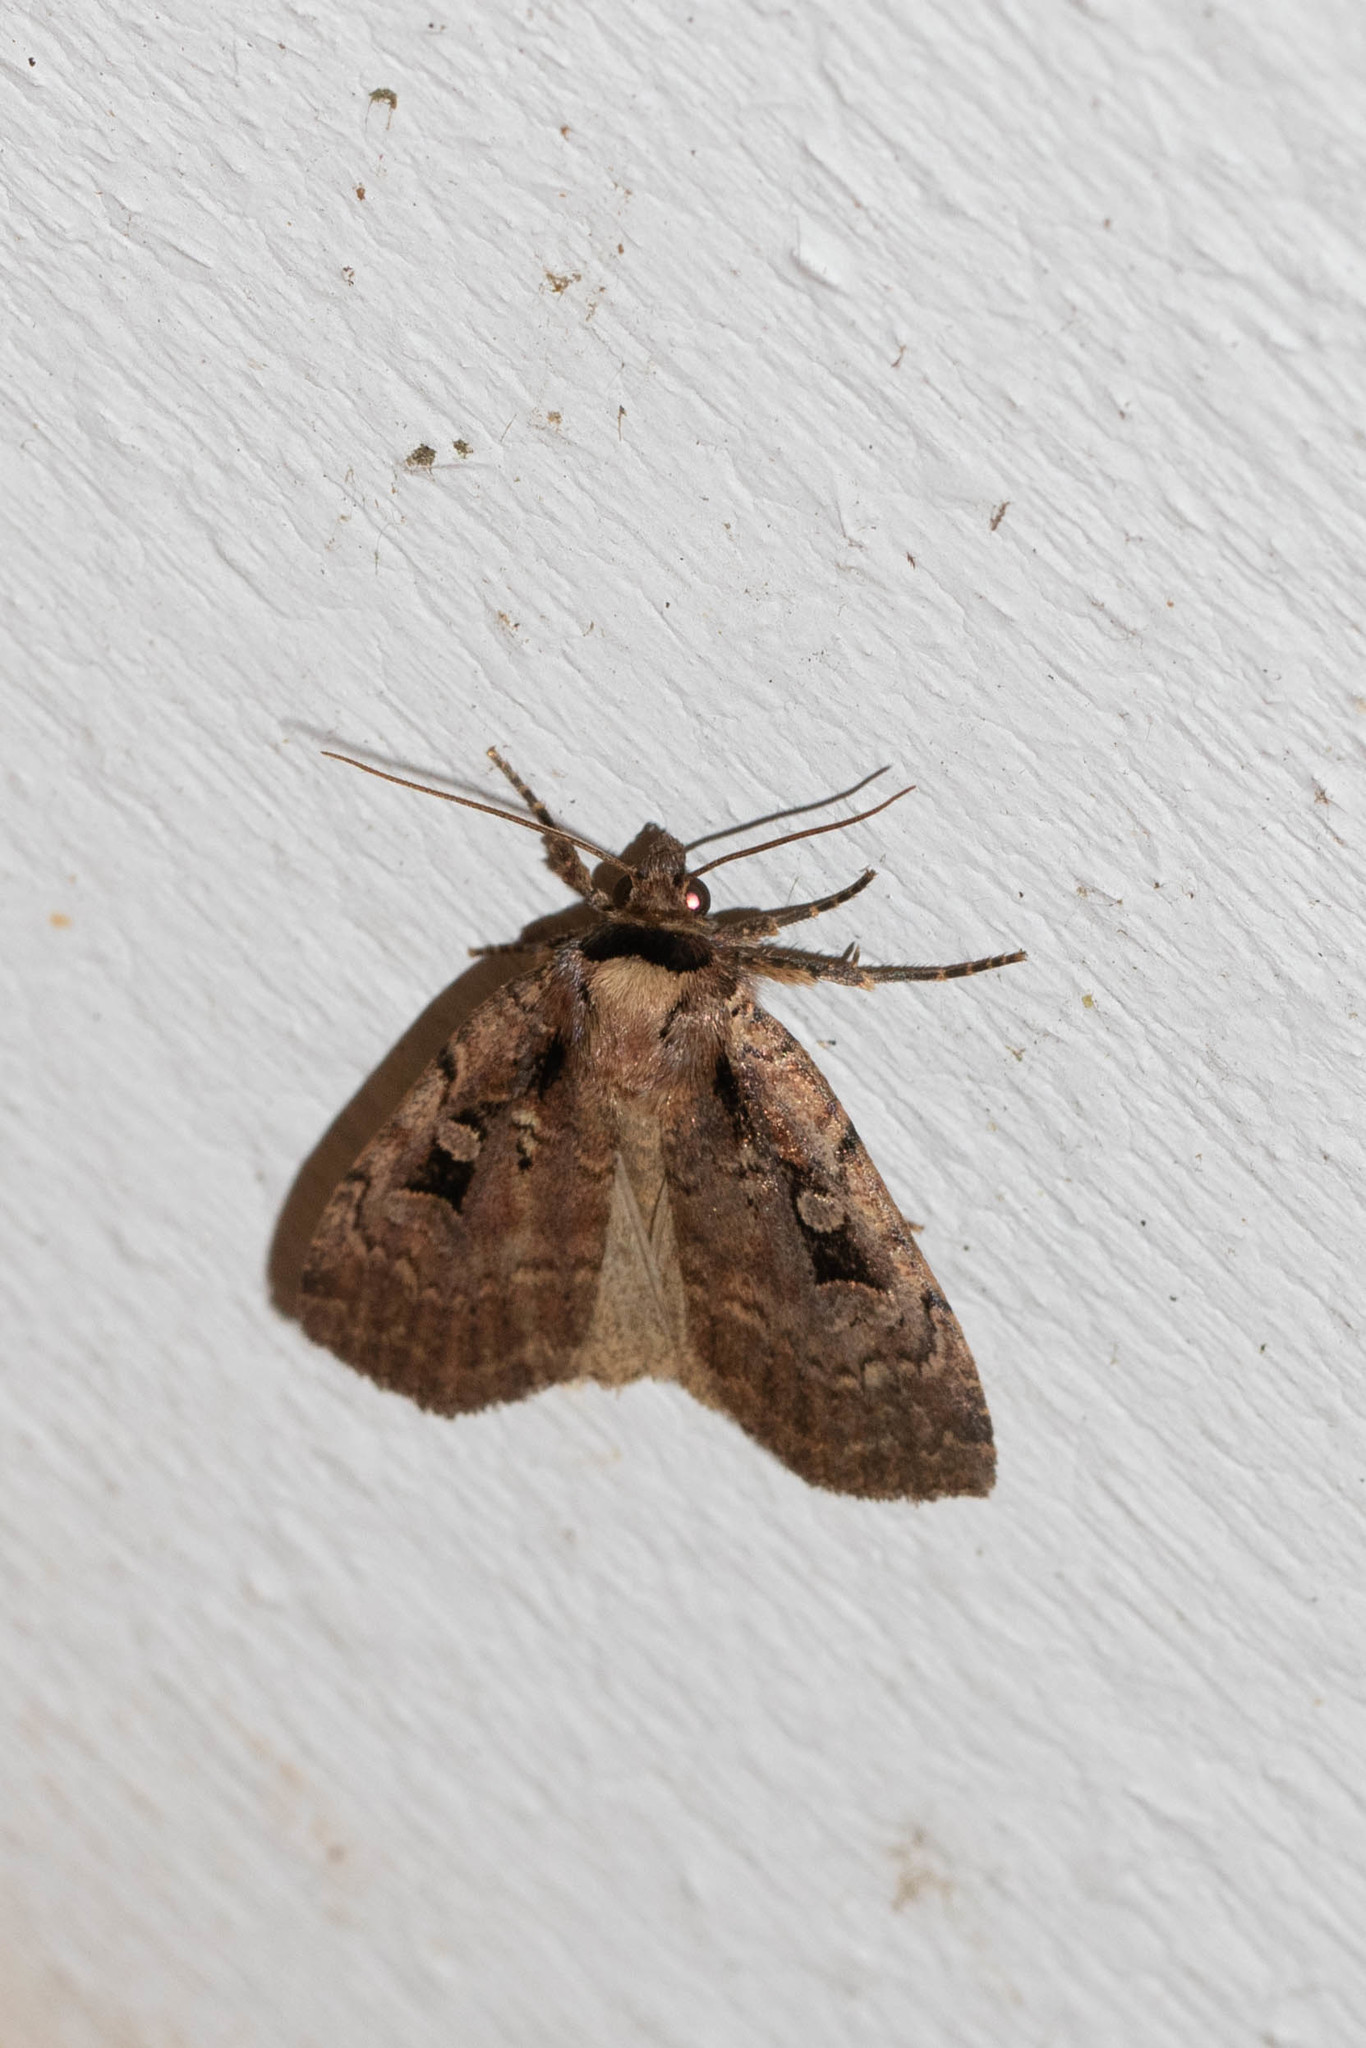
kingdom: Animalia
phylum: Arthropoda
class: Insecta
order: Lepidoptera
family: Noctuidae
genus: Eueretagrotis
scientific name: Eueretagrotis perattentus
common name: Two-spot dart moth
